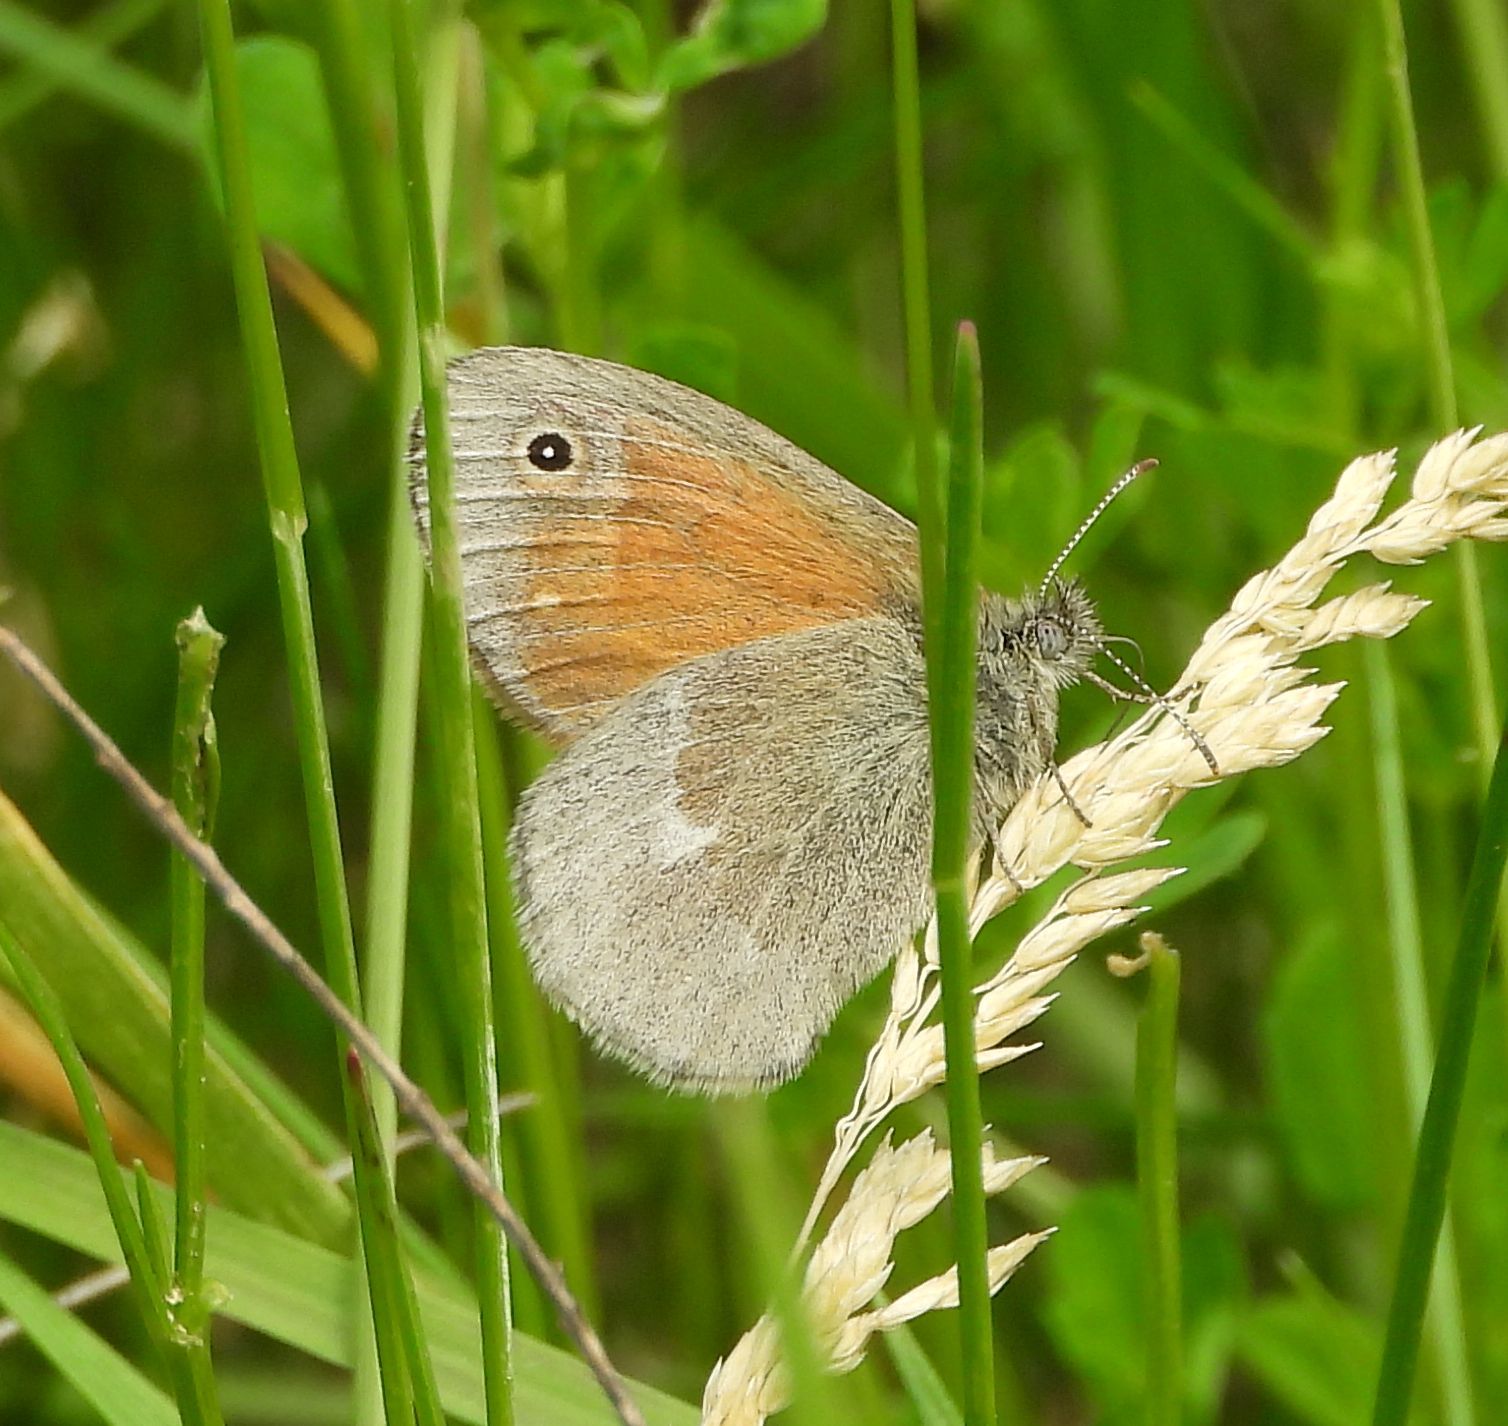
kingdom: Animalia
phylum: Arthropoda
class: Insecta
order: Lepidoptera
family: Nymphalidae
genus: Coenonympha
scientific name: Coenonympha california
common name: Common ringlet
